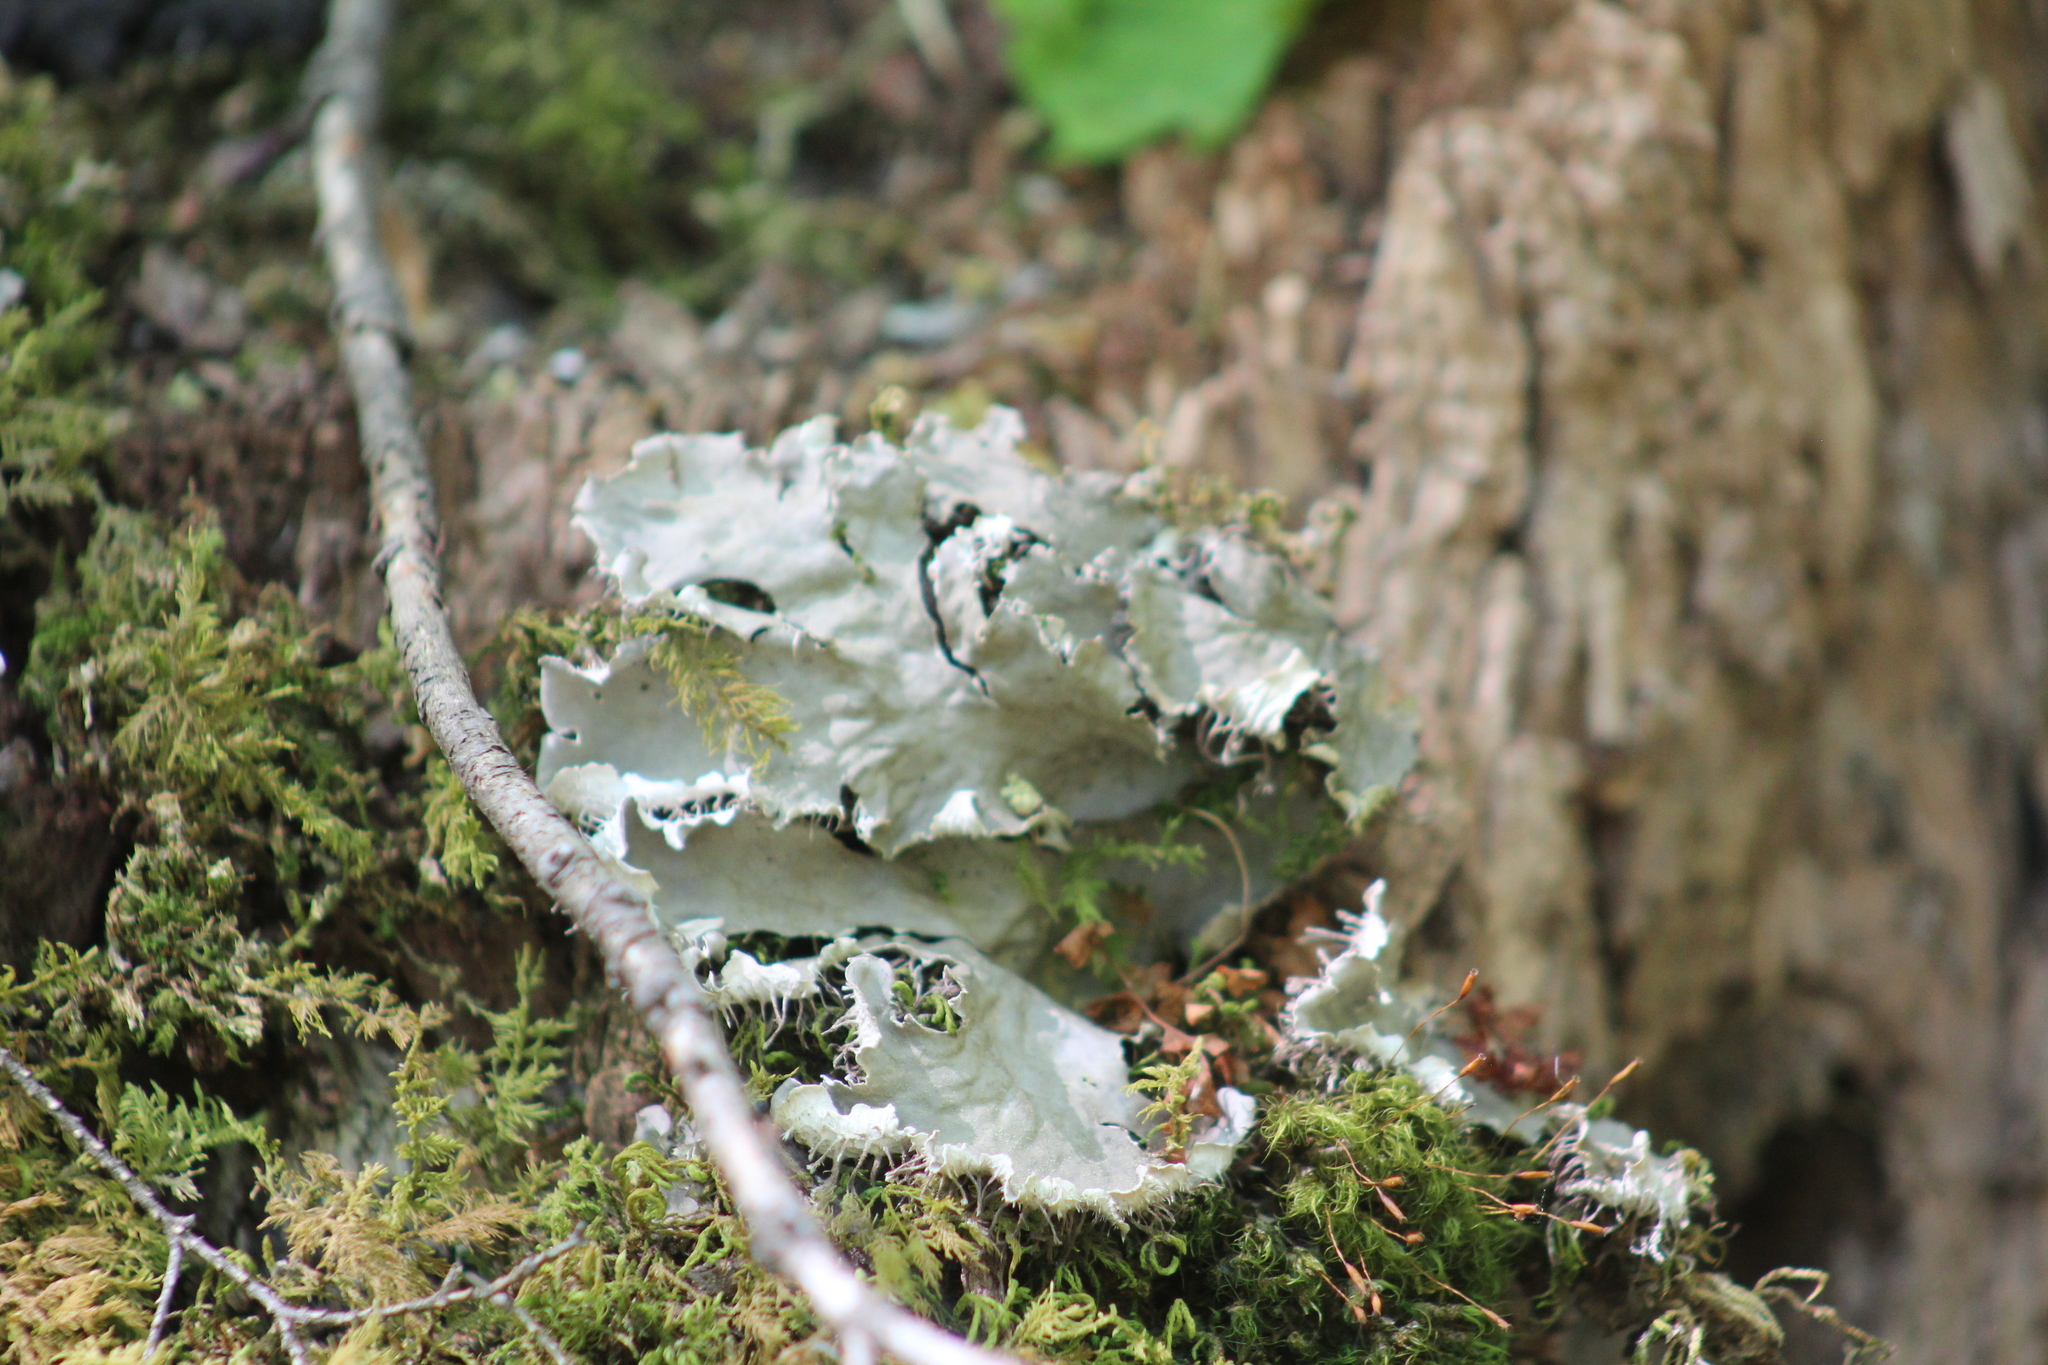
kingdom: Fungi
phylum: Ascomycota
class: Lecanoromycetes
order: Peltigerales
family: Peltigeraceae
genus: Peltigera
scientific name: Peltigera canina
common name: Dog pelt lichen
